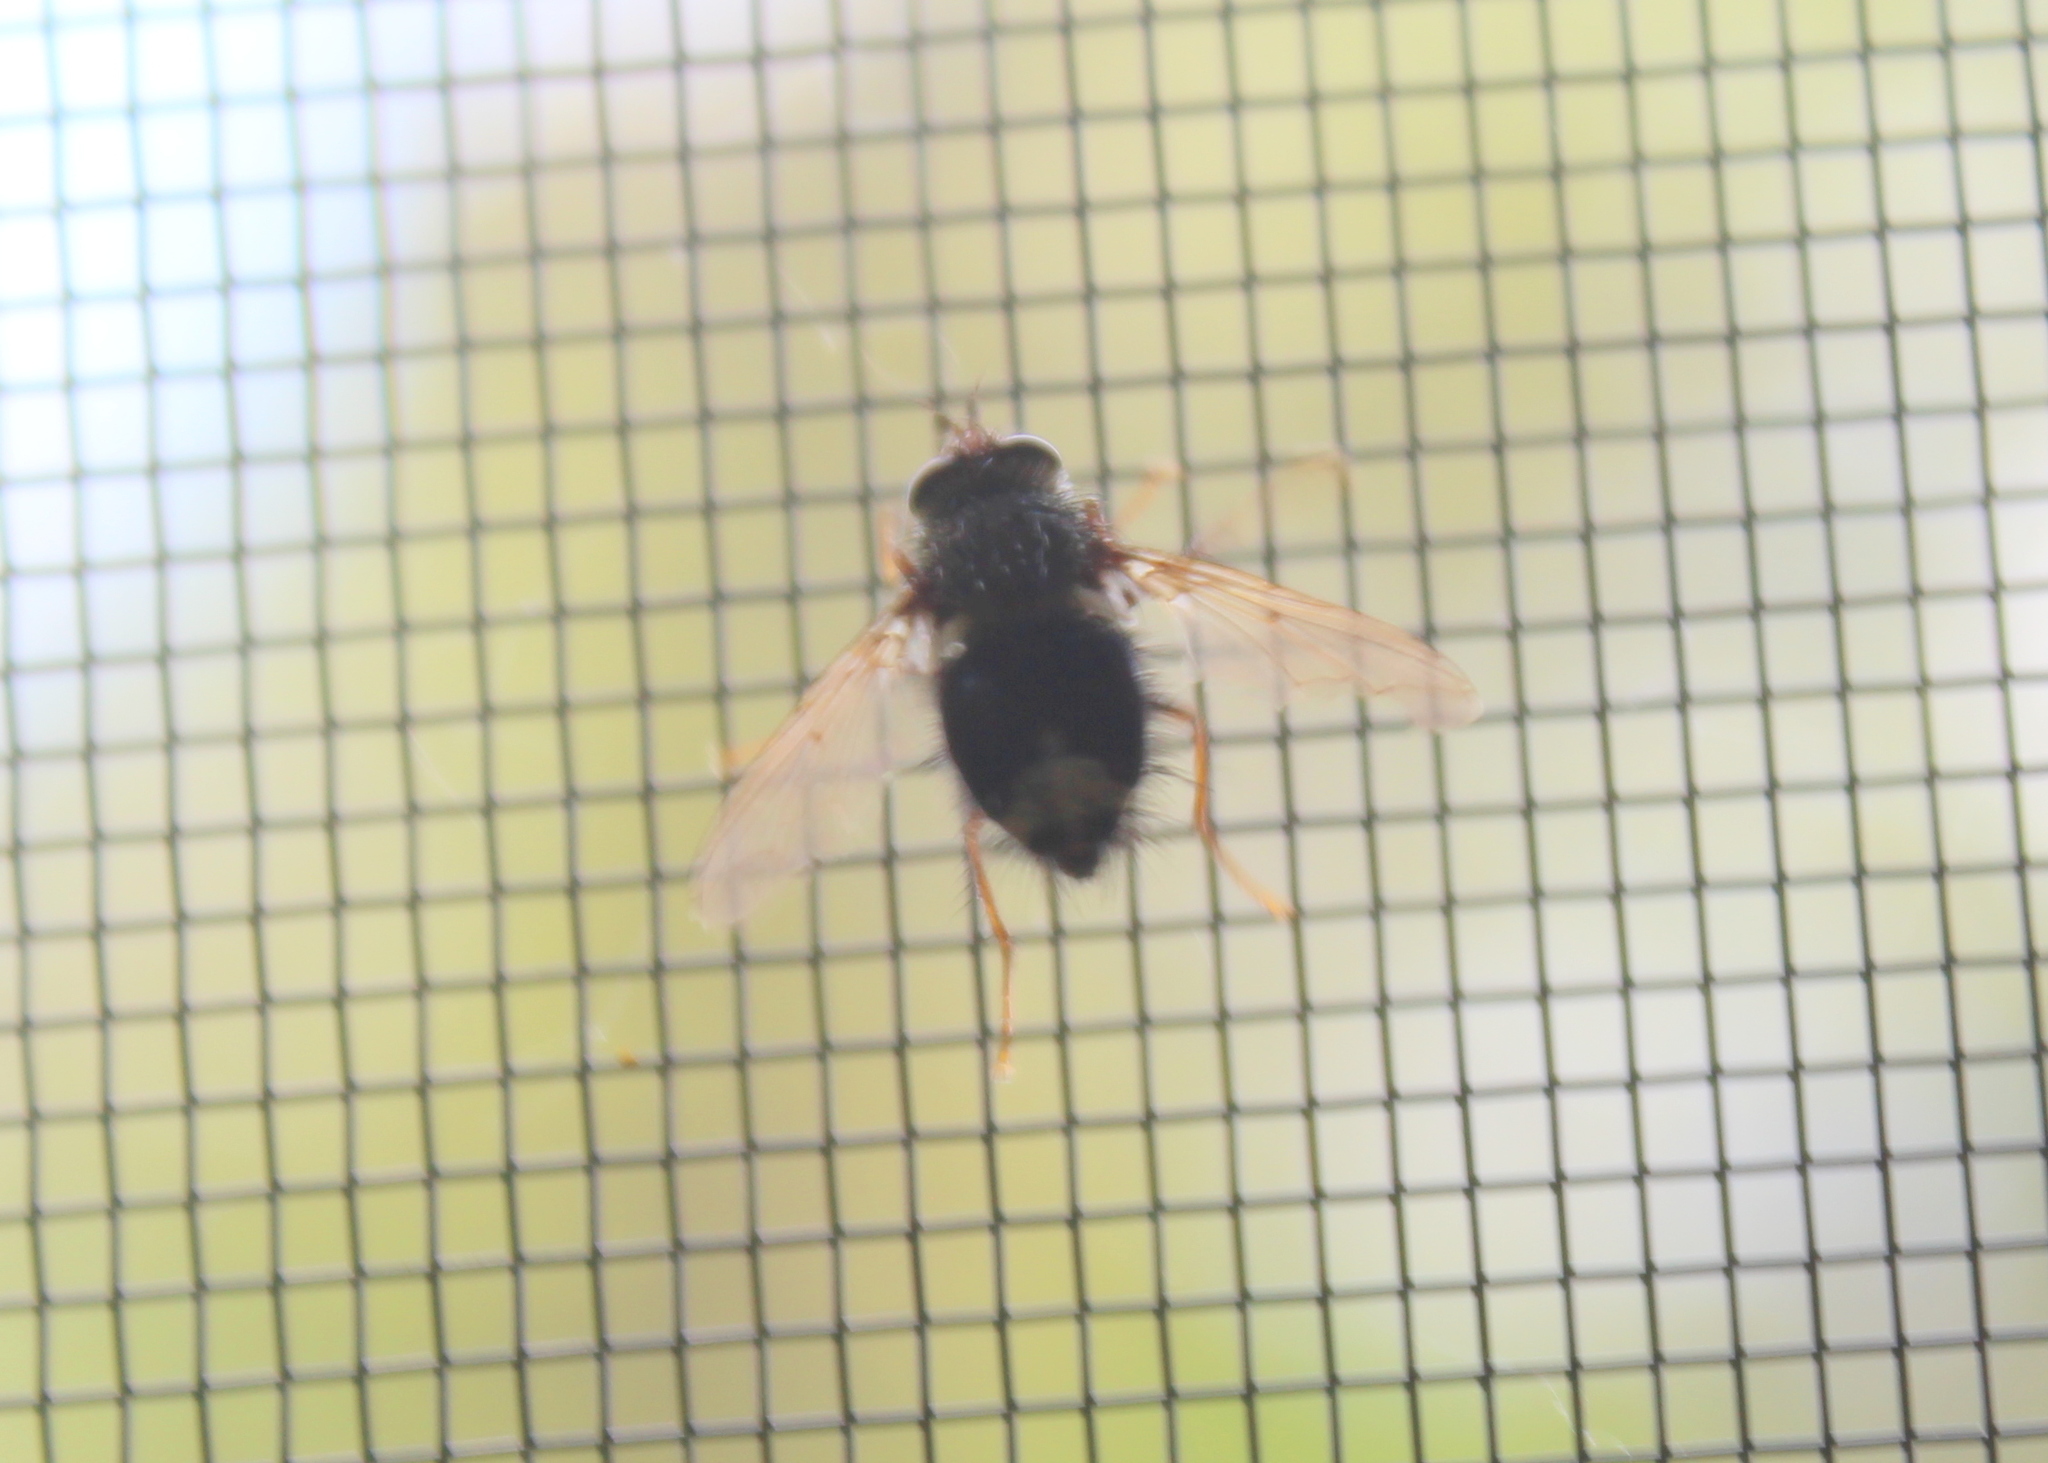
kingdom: Animalia
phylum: Arthropoda
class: Insecta
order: Diptera
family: Tachinidae
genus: Epalpus
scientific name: Epalpus signifer
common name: Early tachinid fly
